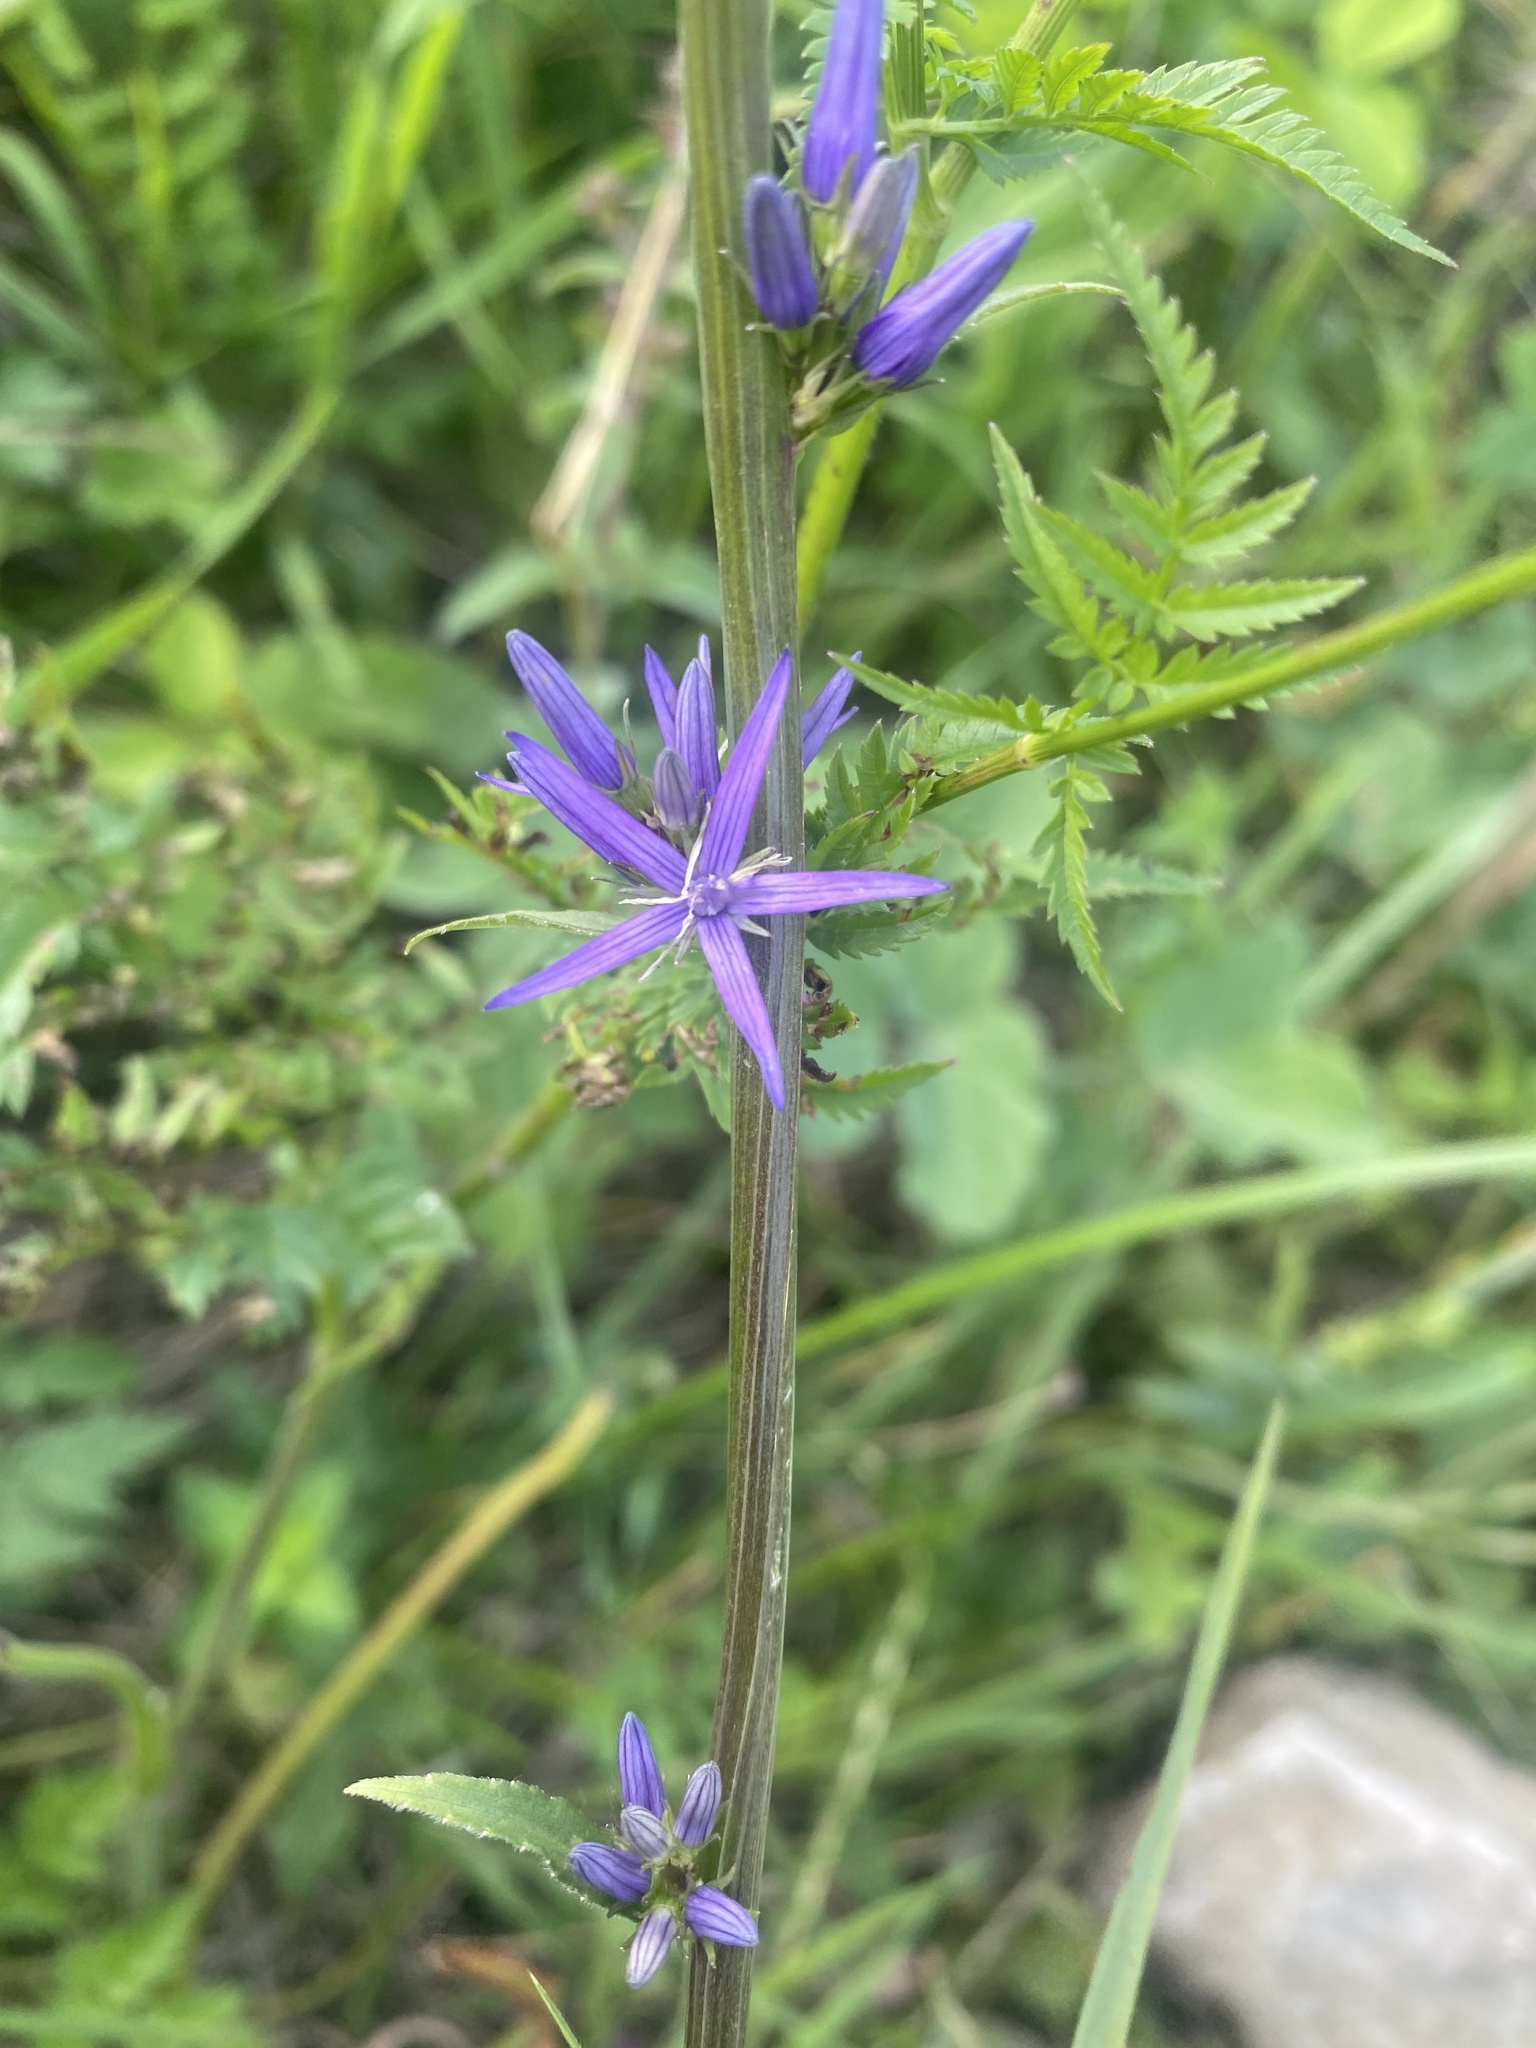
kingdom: Plantae
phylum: Tracheophyta
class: Magnoliopsida
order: Asterales
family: Campanulaceae
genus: Asyneuma
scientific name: Asyneuma campanuloides
